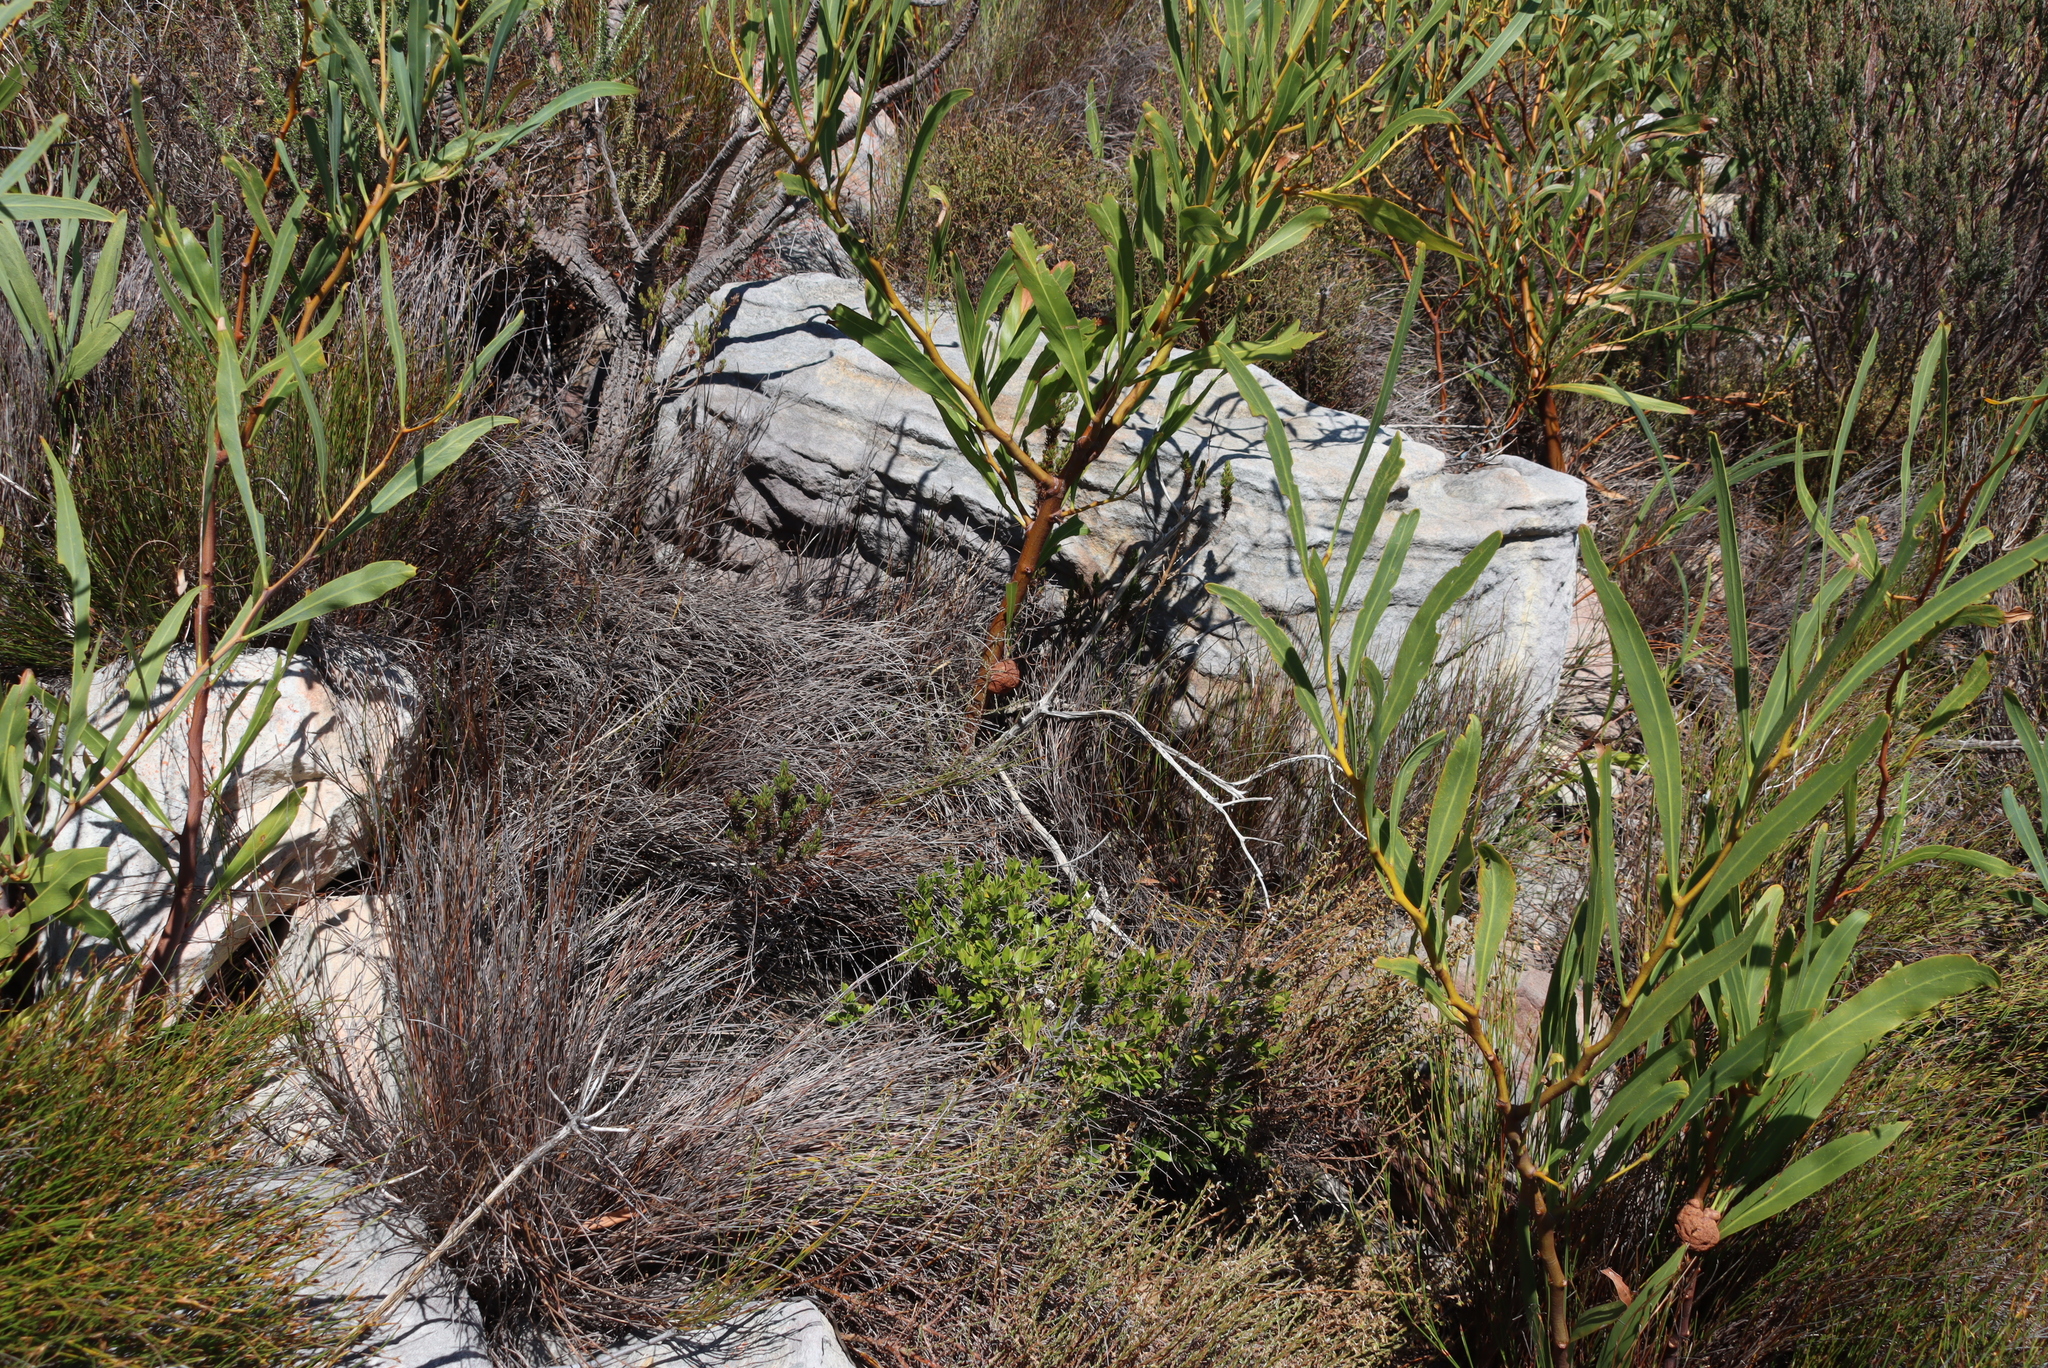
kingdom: Fungi
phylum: Basidiomycota
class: Pucciniomycetes
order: Pucciniales
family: Uromycladiaceae
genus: Uromycladium
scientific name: Uromycladium morrisii
